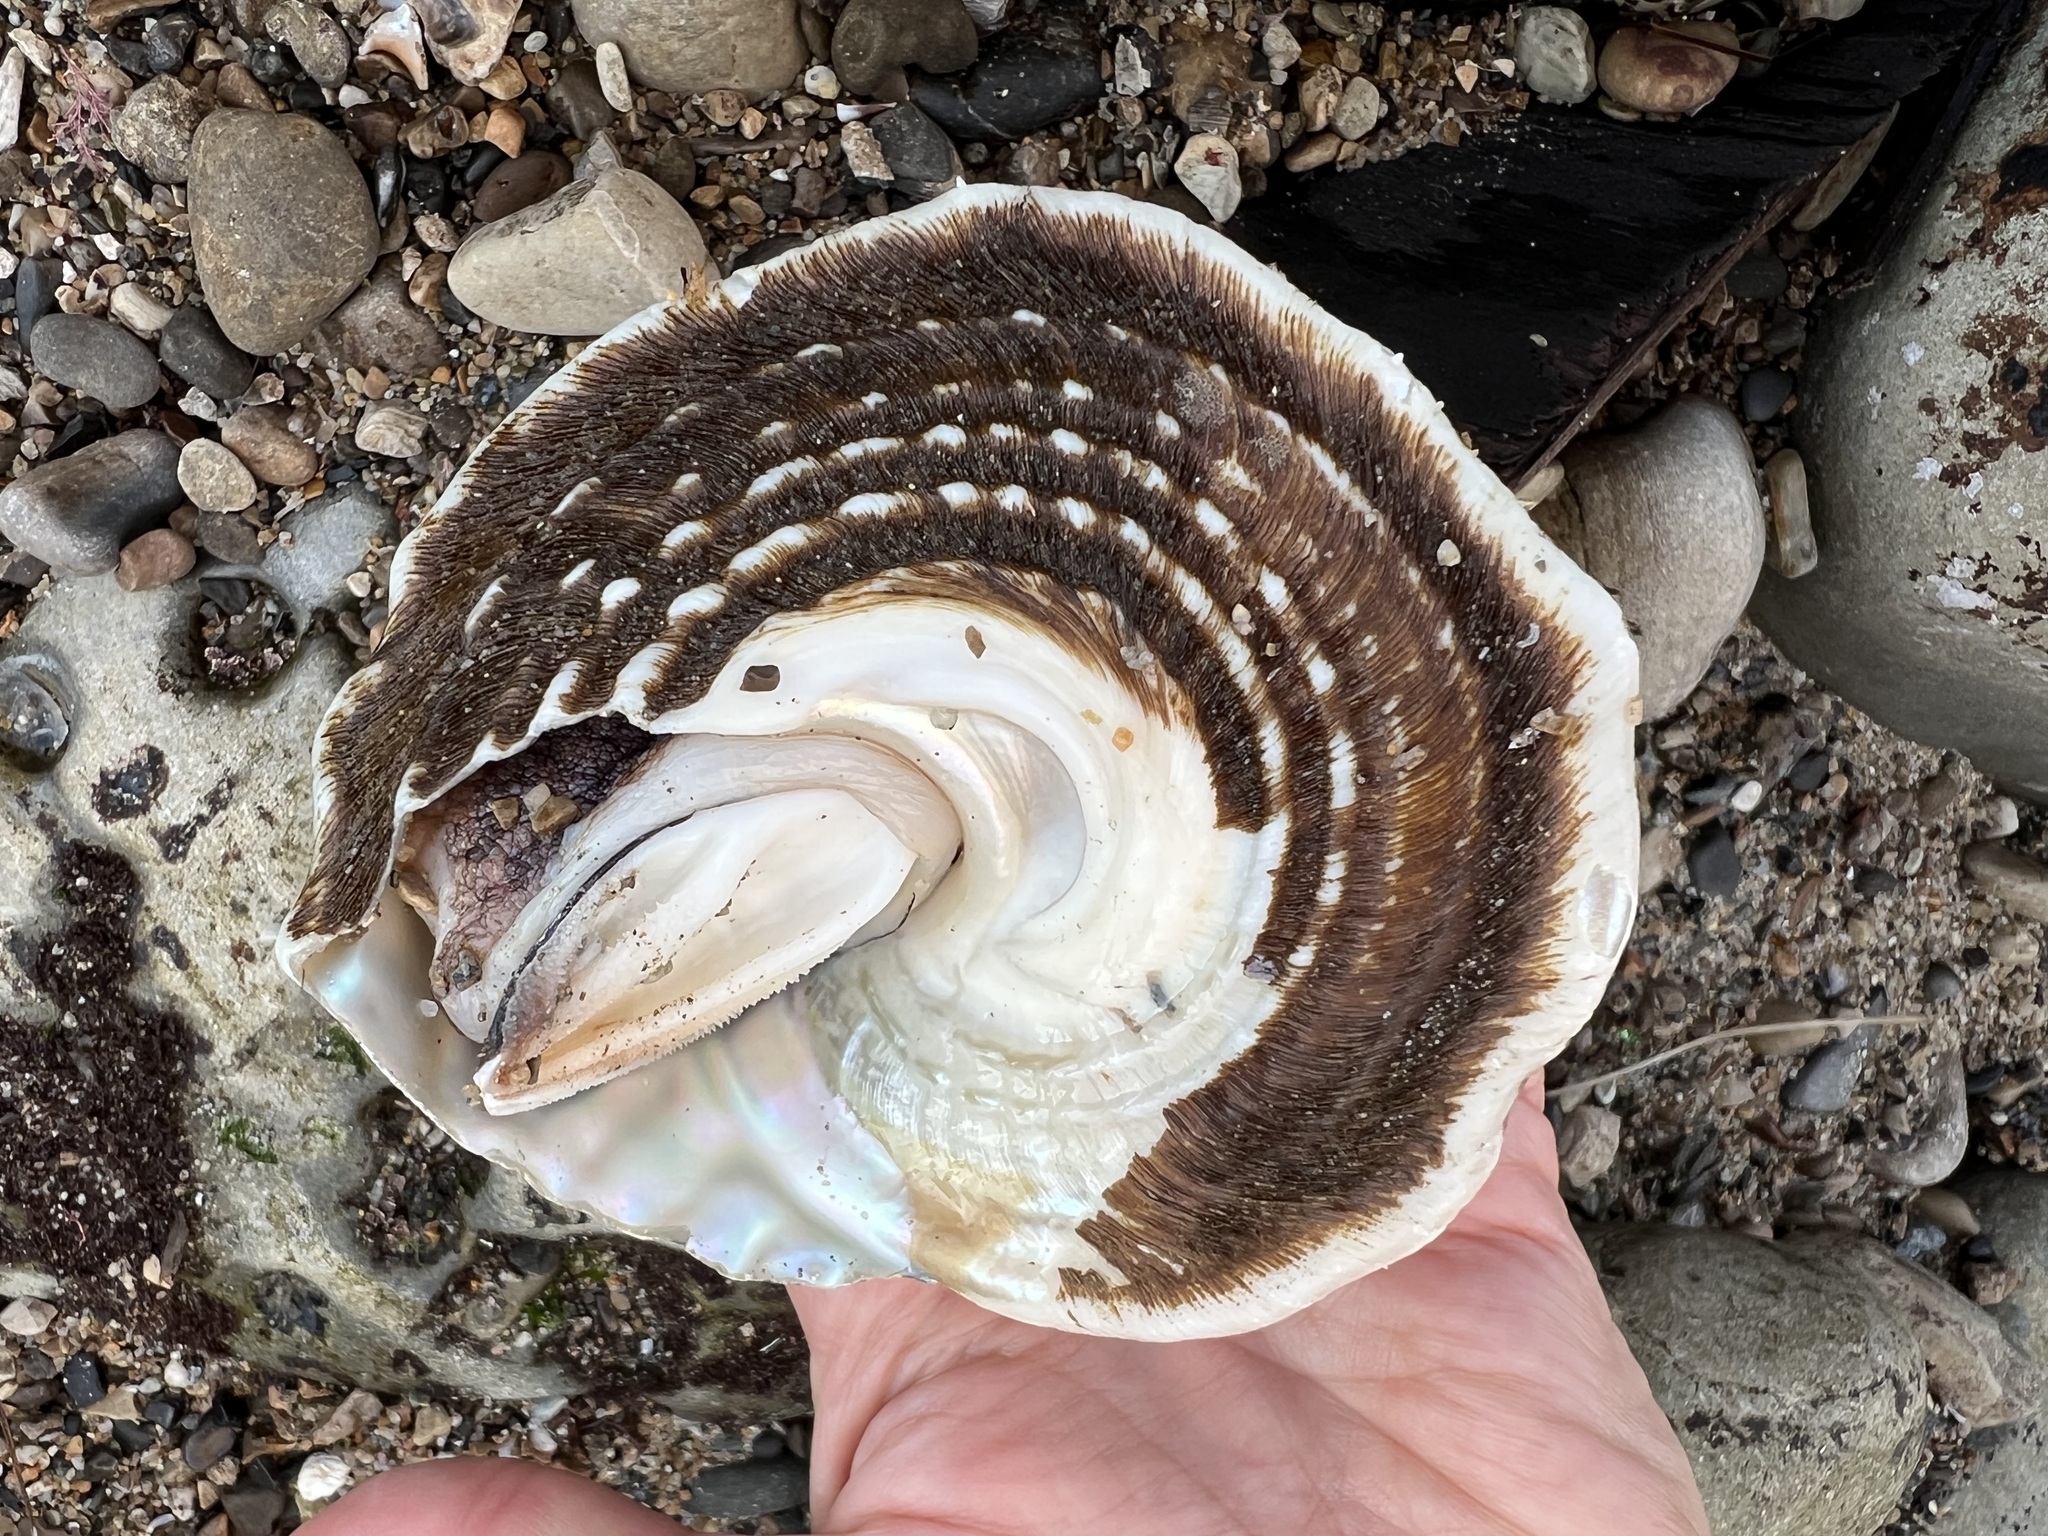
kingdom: Animalia
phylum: Mollusca
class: Gastropoda
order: Trochida
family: Turbinidae
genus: Megastraea
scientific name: Megastraea undosa
